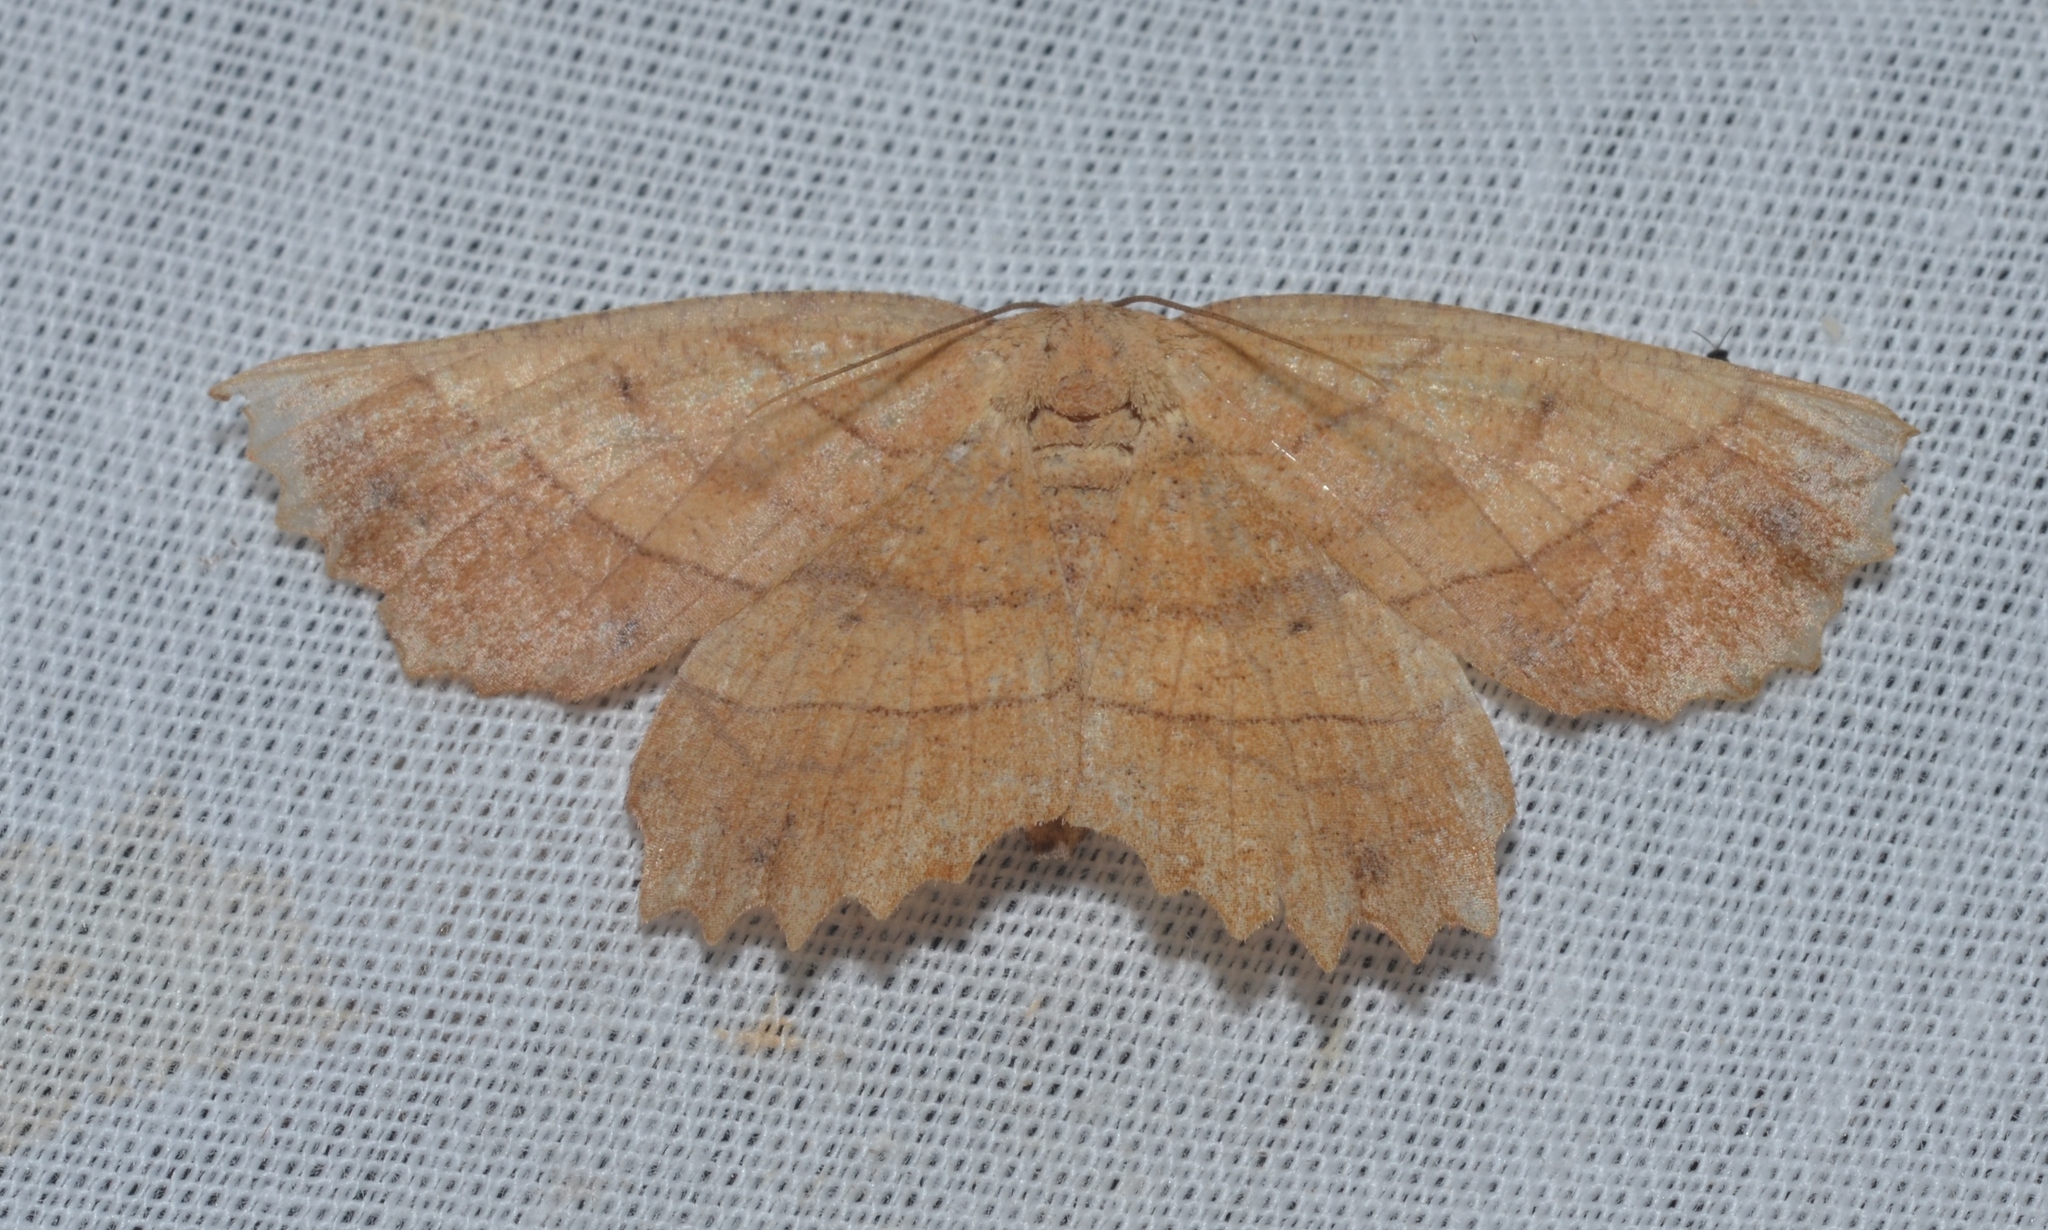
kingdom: Animalia
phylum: Arthropoda
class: Insecta
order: Lepidoptera
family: Geometridae
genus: Euchlaena
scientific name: Euchlaena johnsonaria
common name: Johnson's euchlaena
